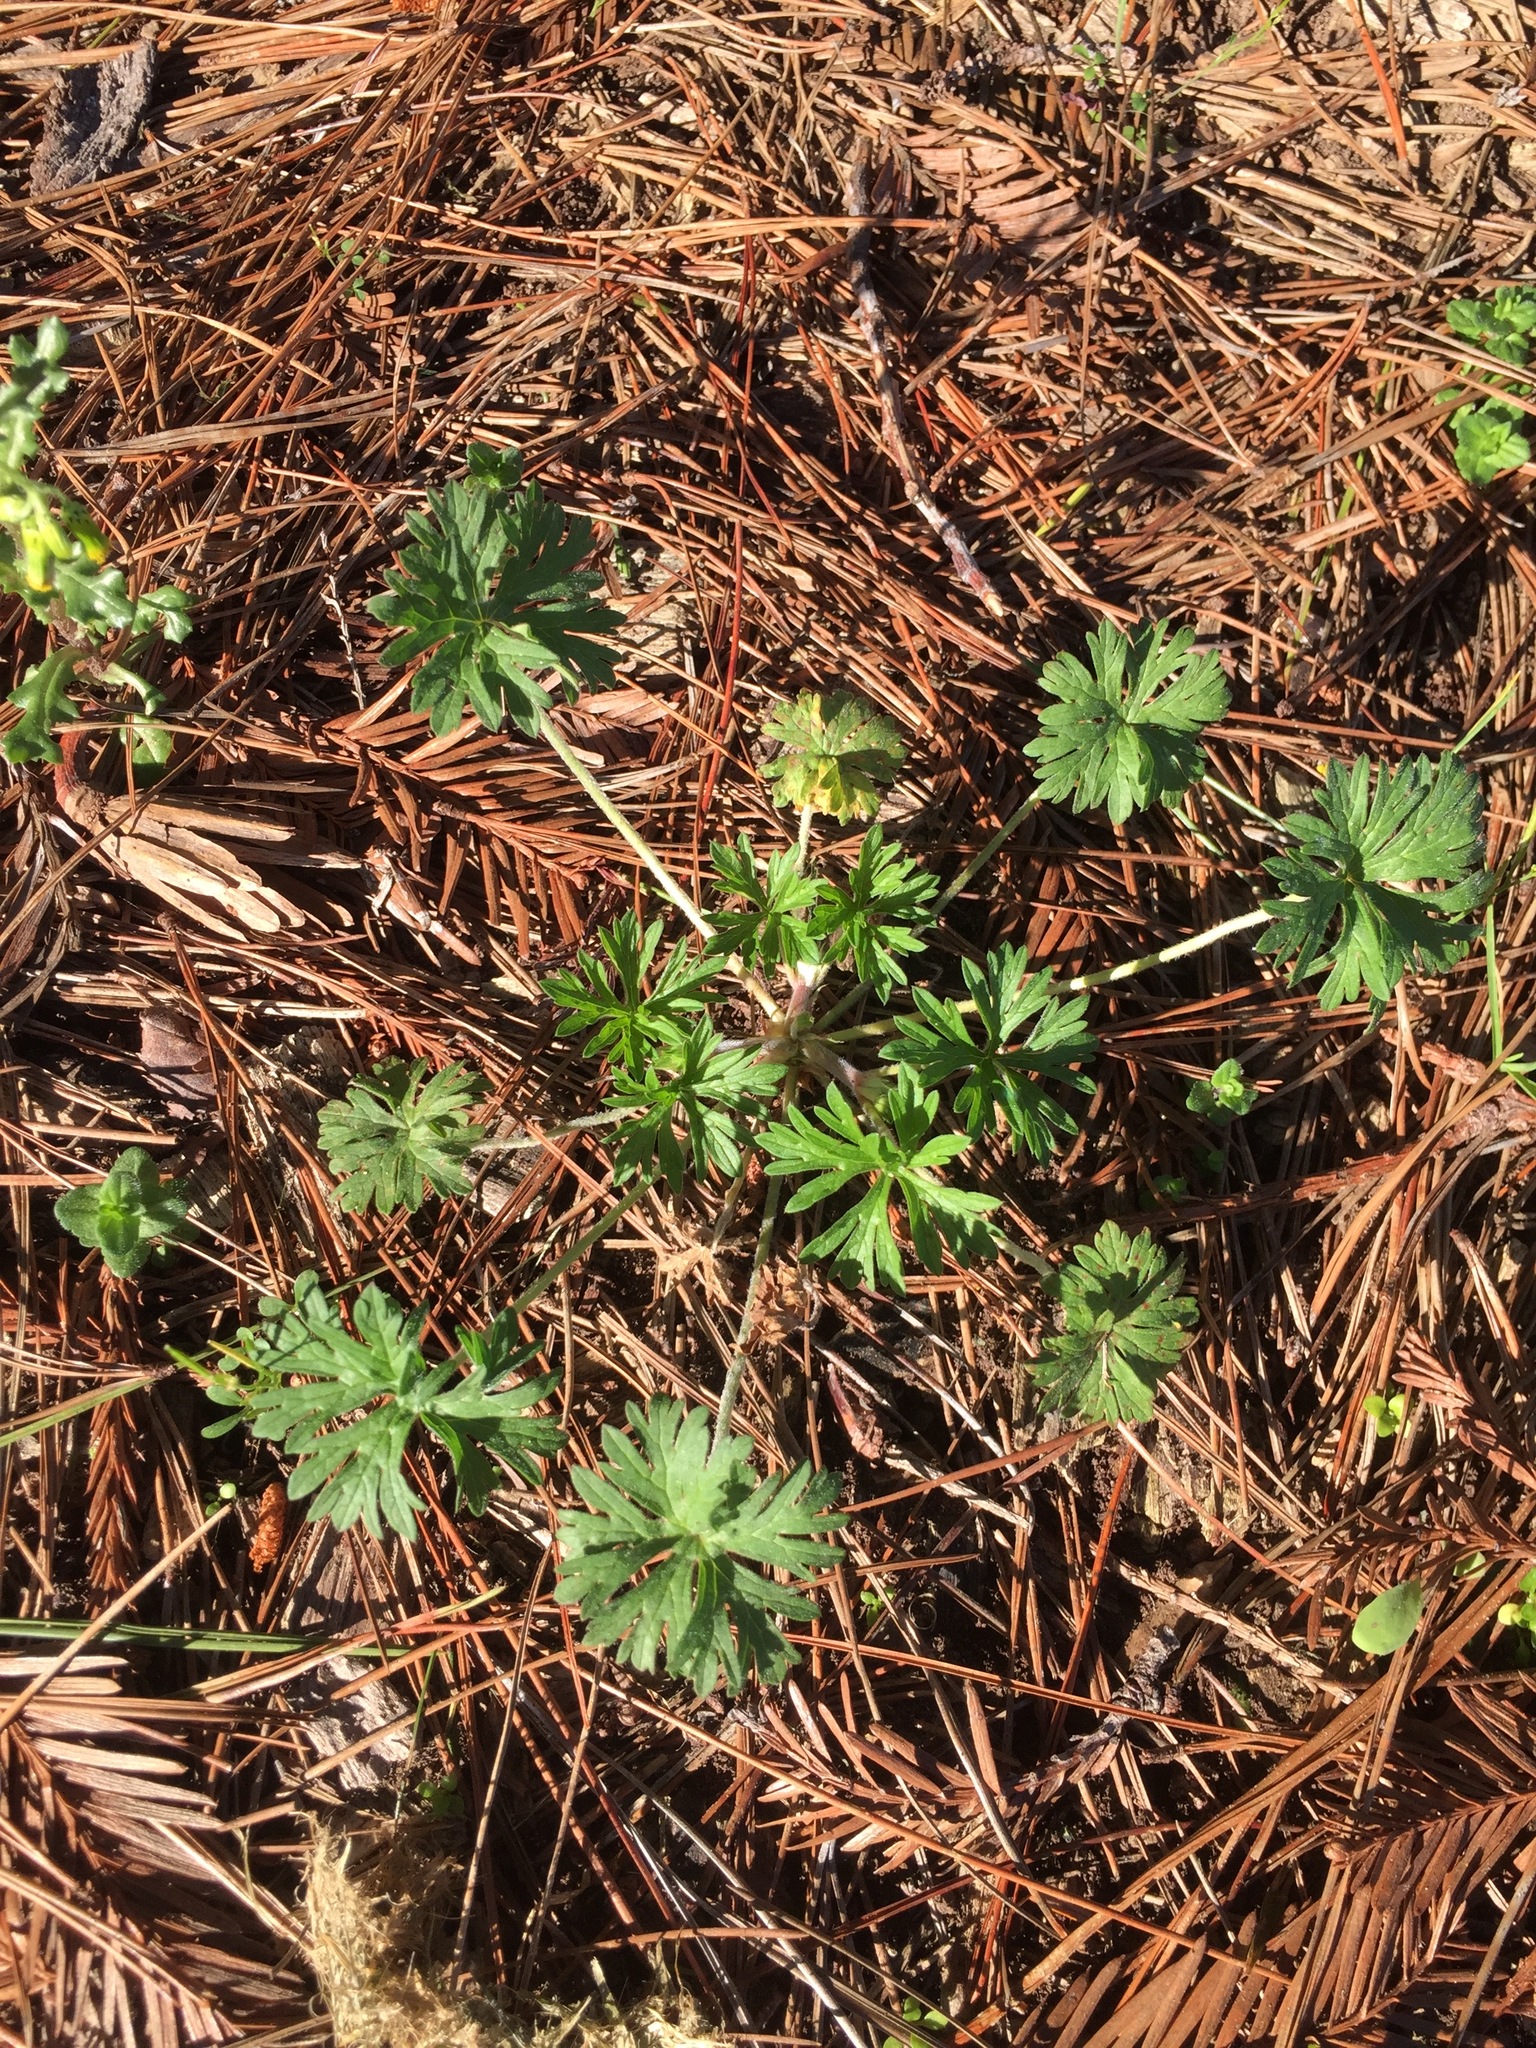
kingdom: Plantae
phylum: Tracheophyta
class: Magnoliopsida
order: Geraniales
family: Geraniaceae
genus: Geranium
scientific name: Geranium
